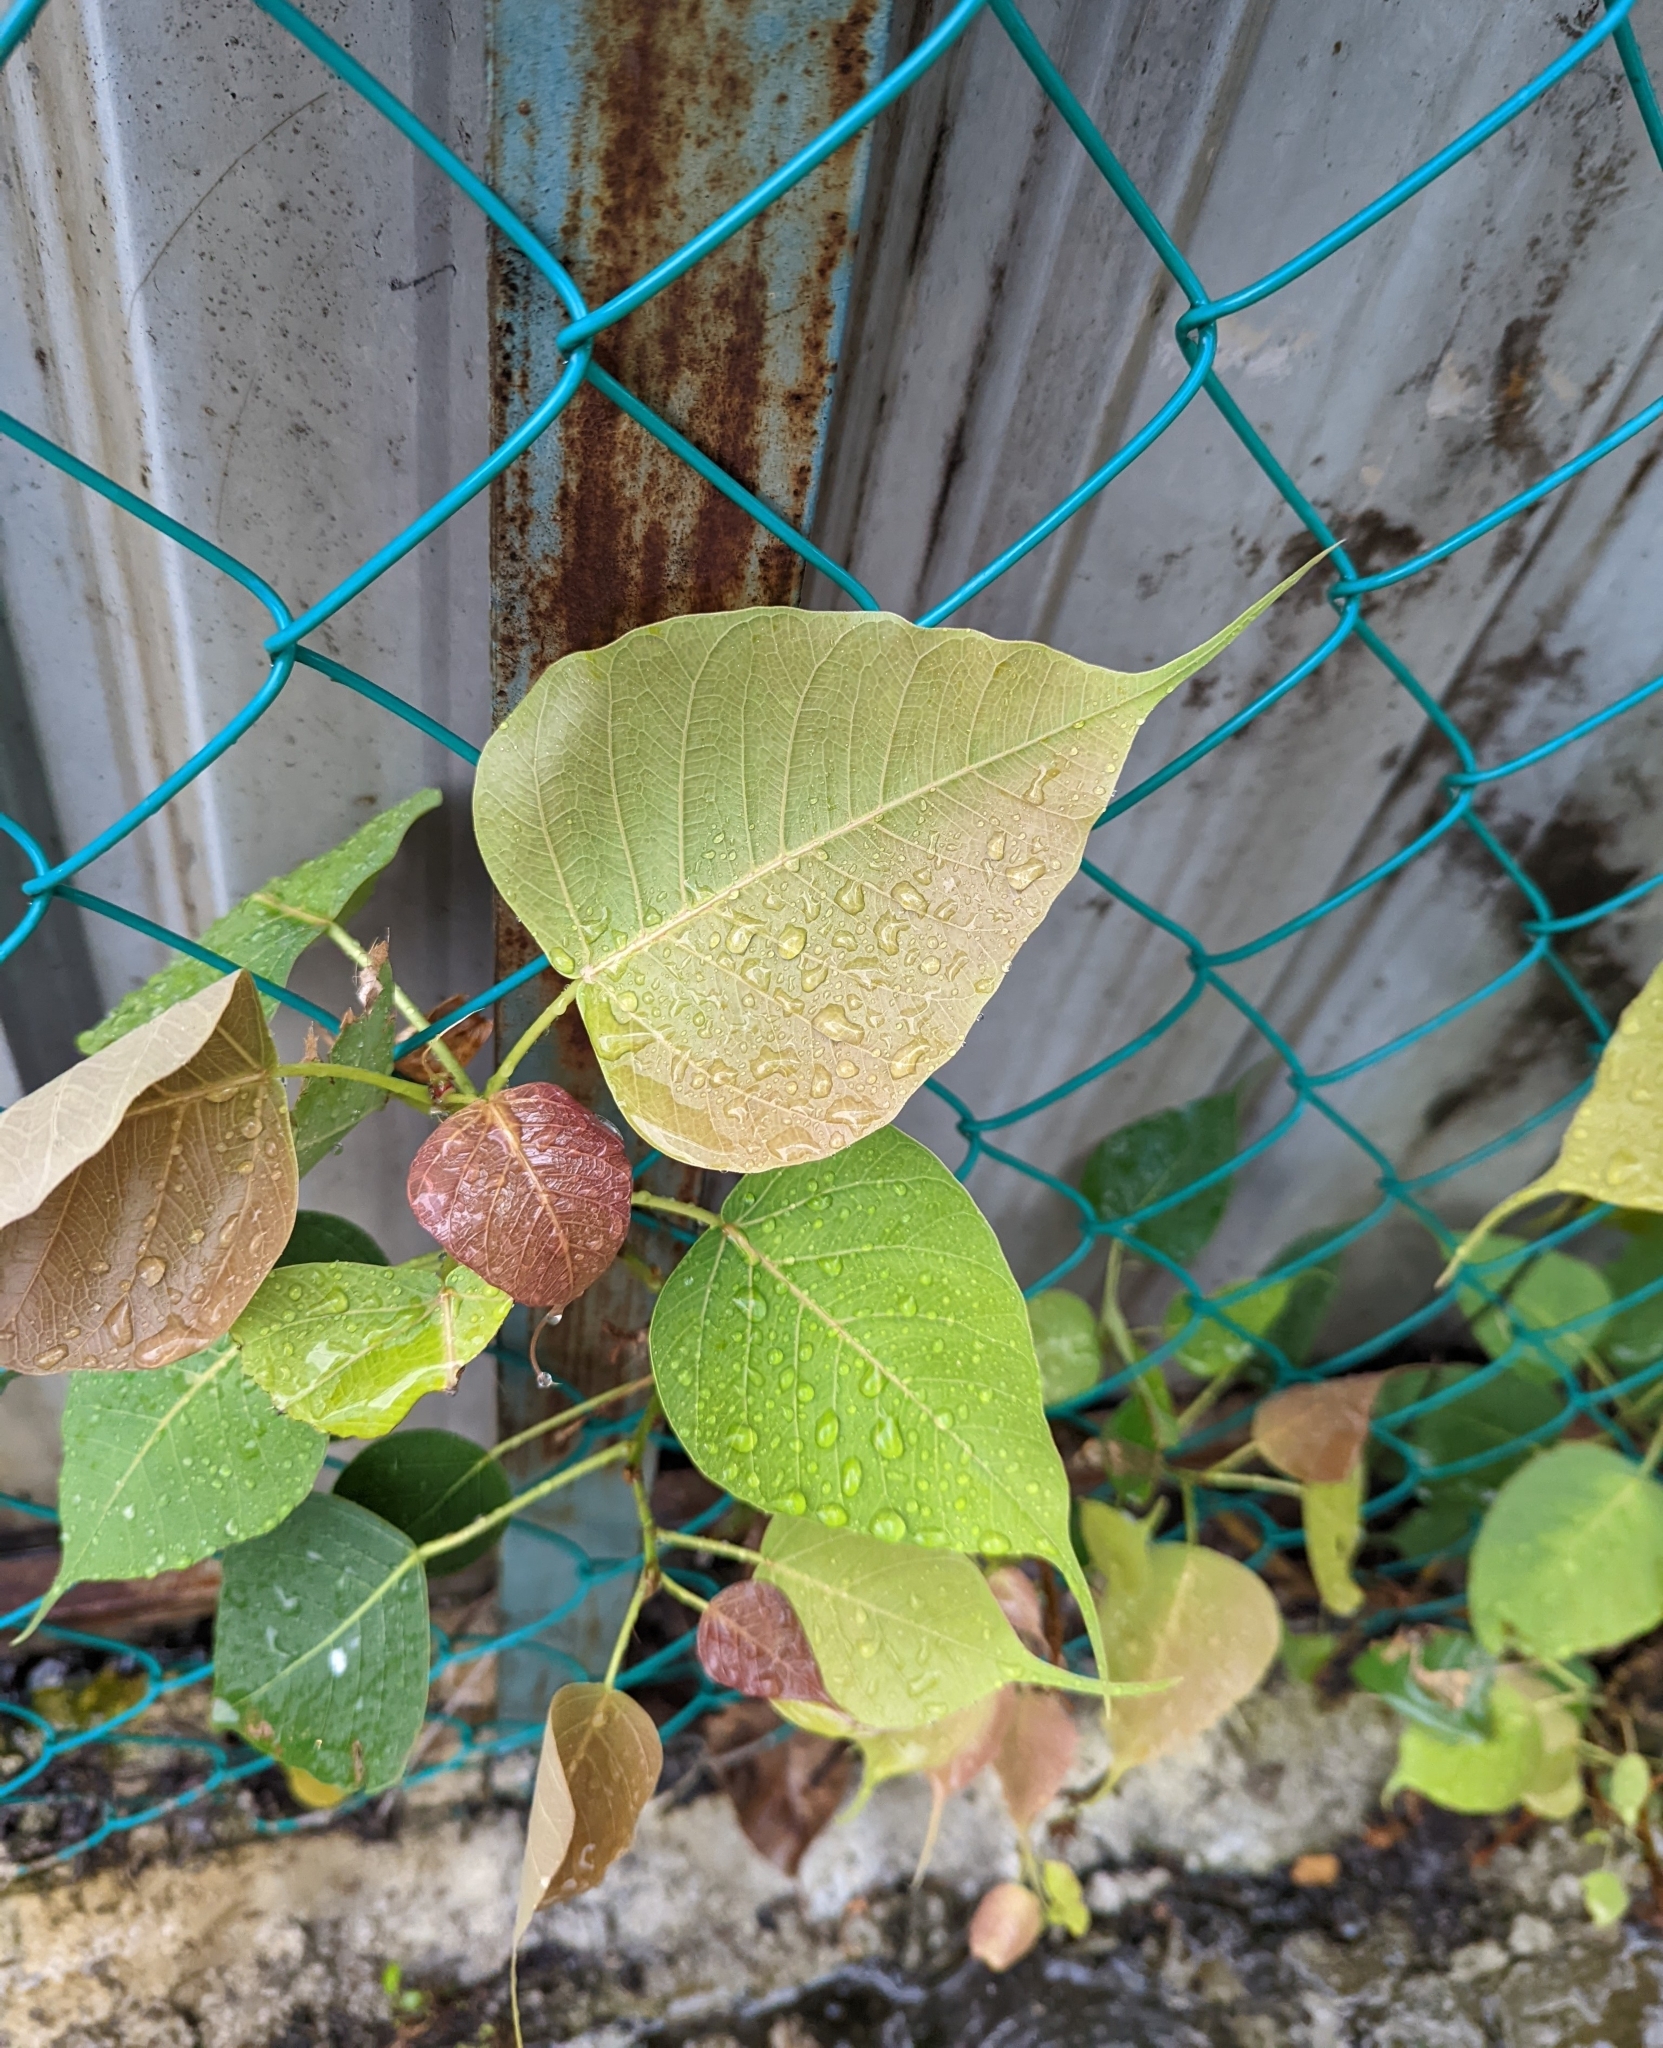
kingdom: Plantae
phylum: Tracheophyta
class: Magnoliopsida
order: Rosales
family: Moraceae
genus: Ficus
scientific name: Ficus religiosa
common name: Bodhi tree
